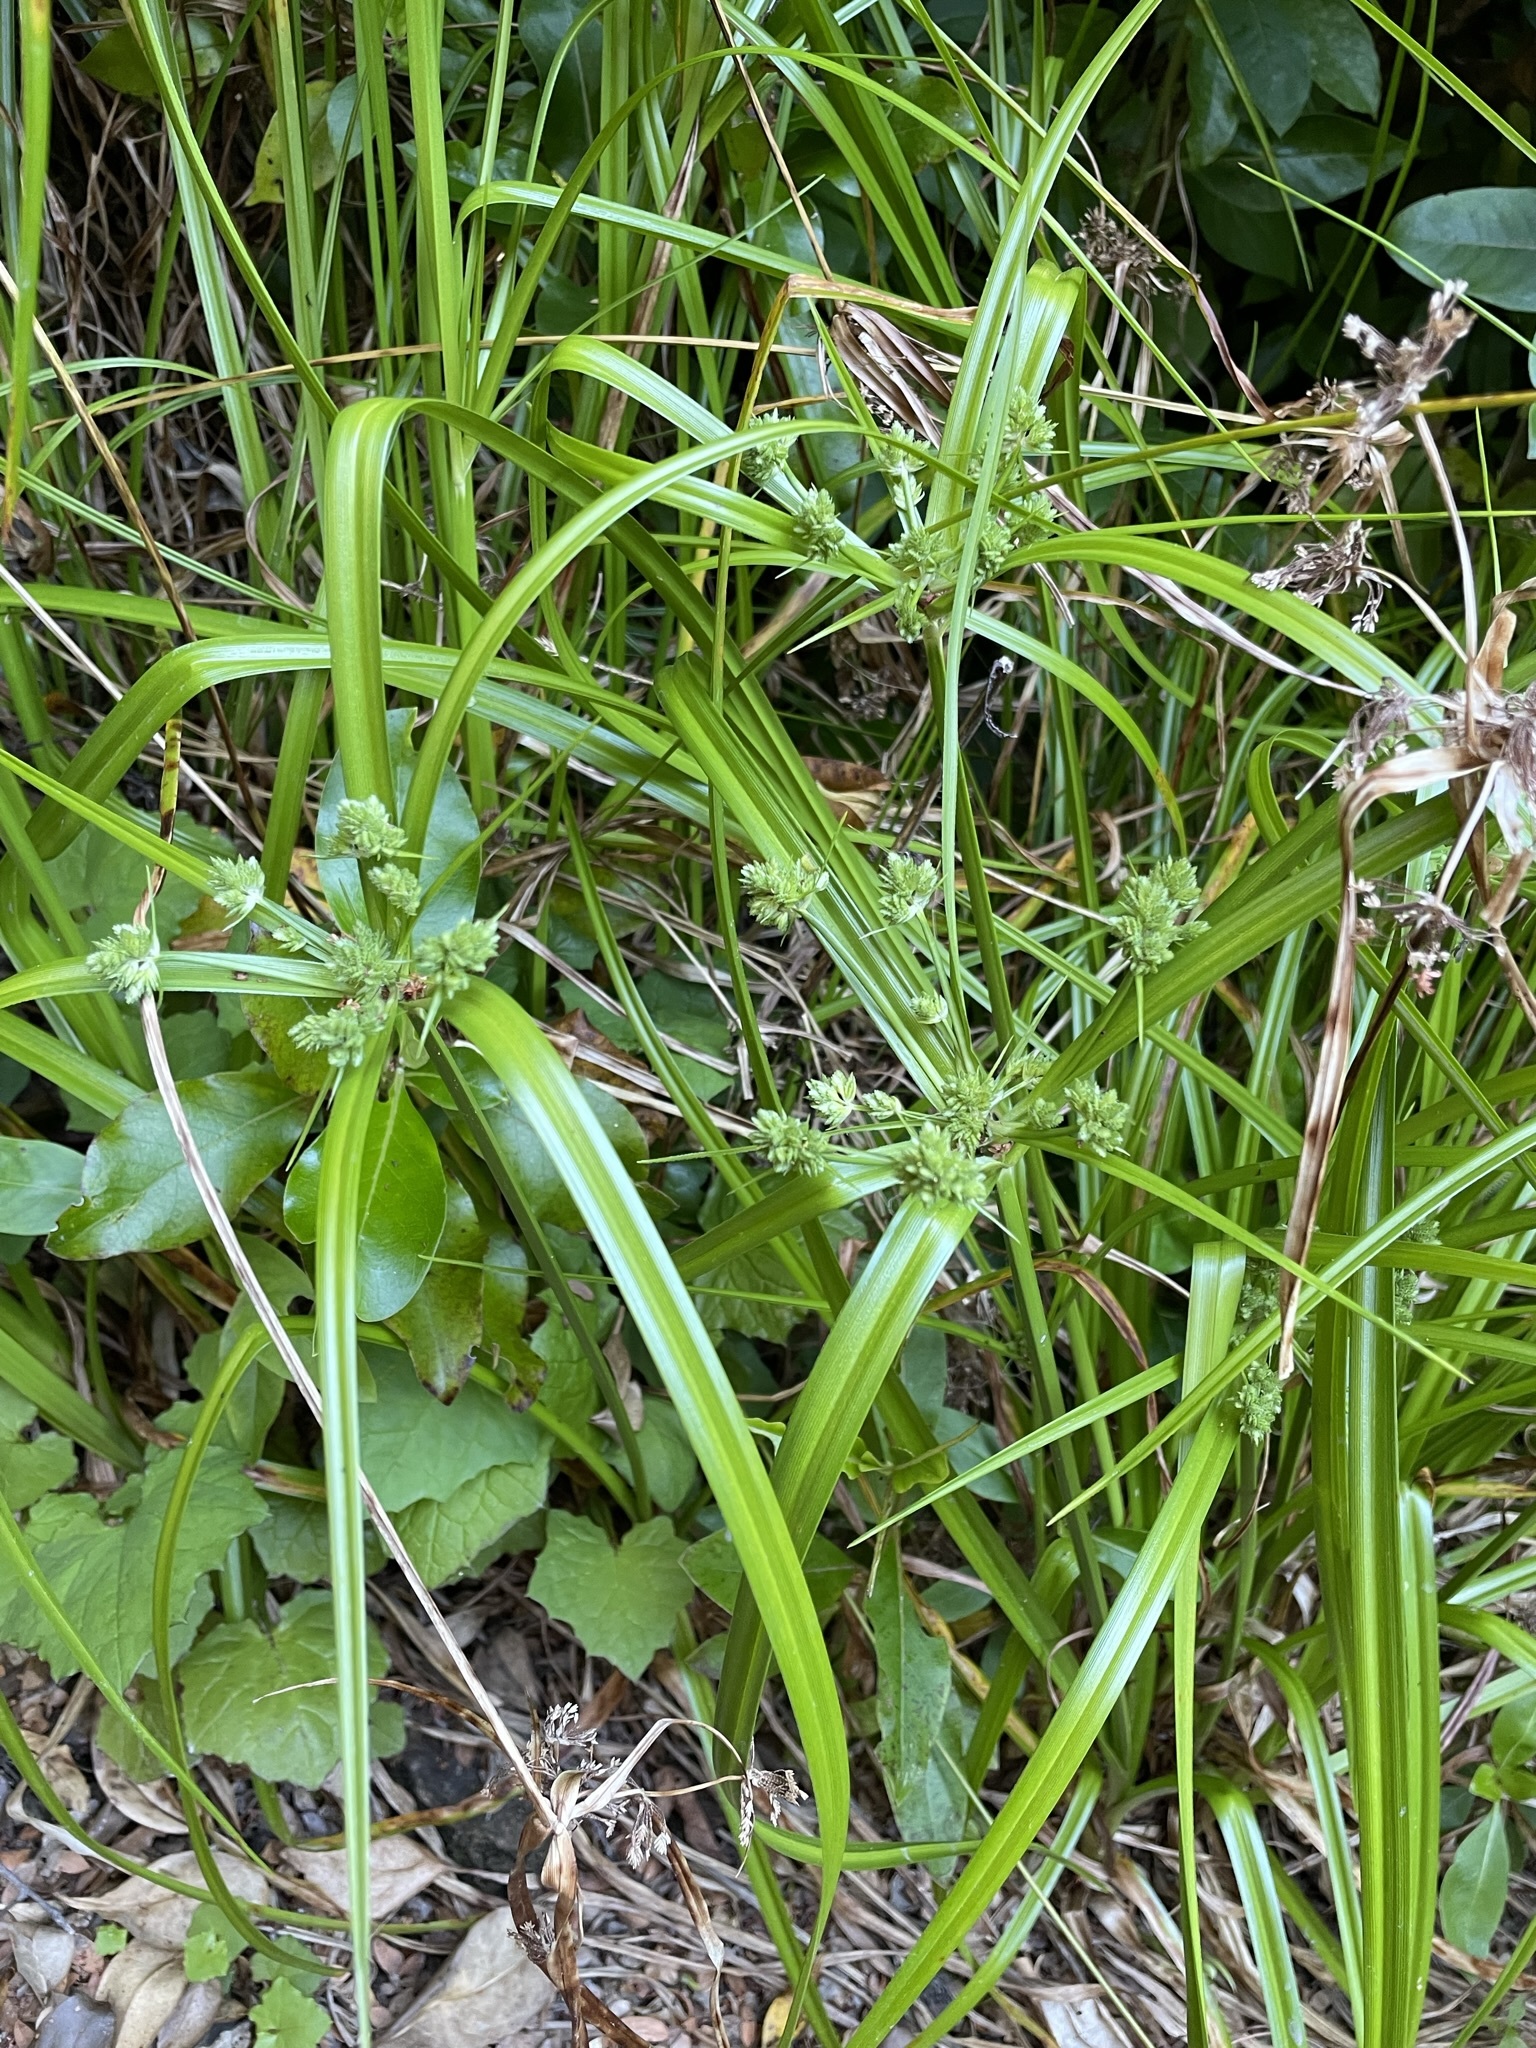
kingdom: Plantae
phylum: Tracheophyta
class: Liliopsida
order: Poales
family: Cyperaceae
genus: Cyperus
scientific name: Cyperus eragrostis
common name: Tall flatsedge
